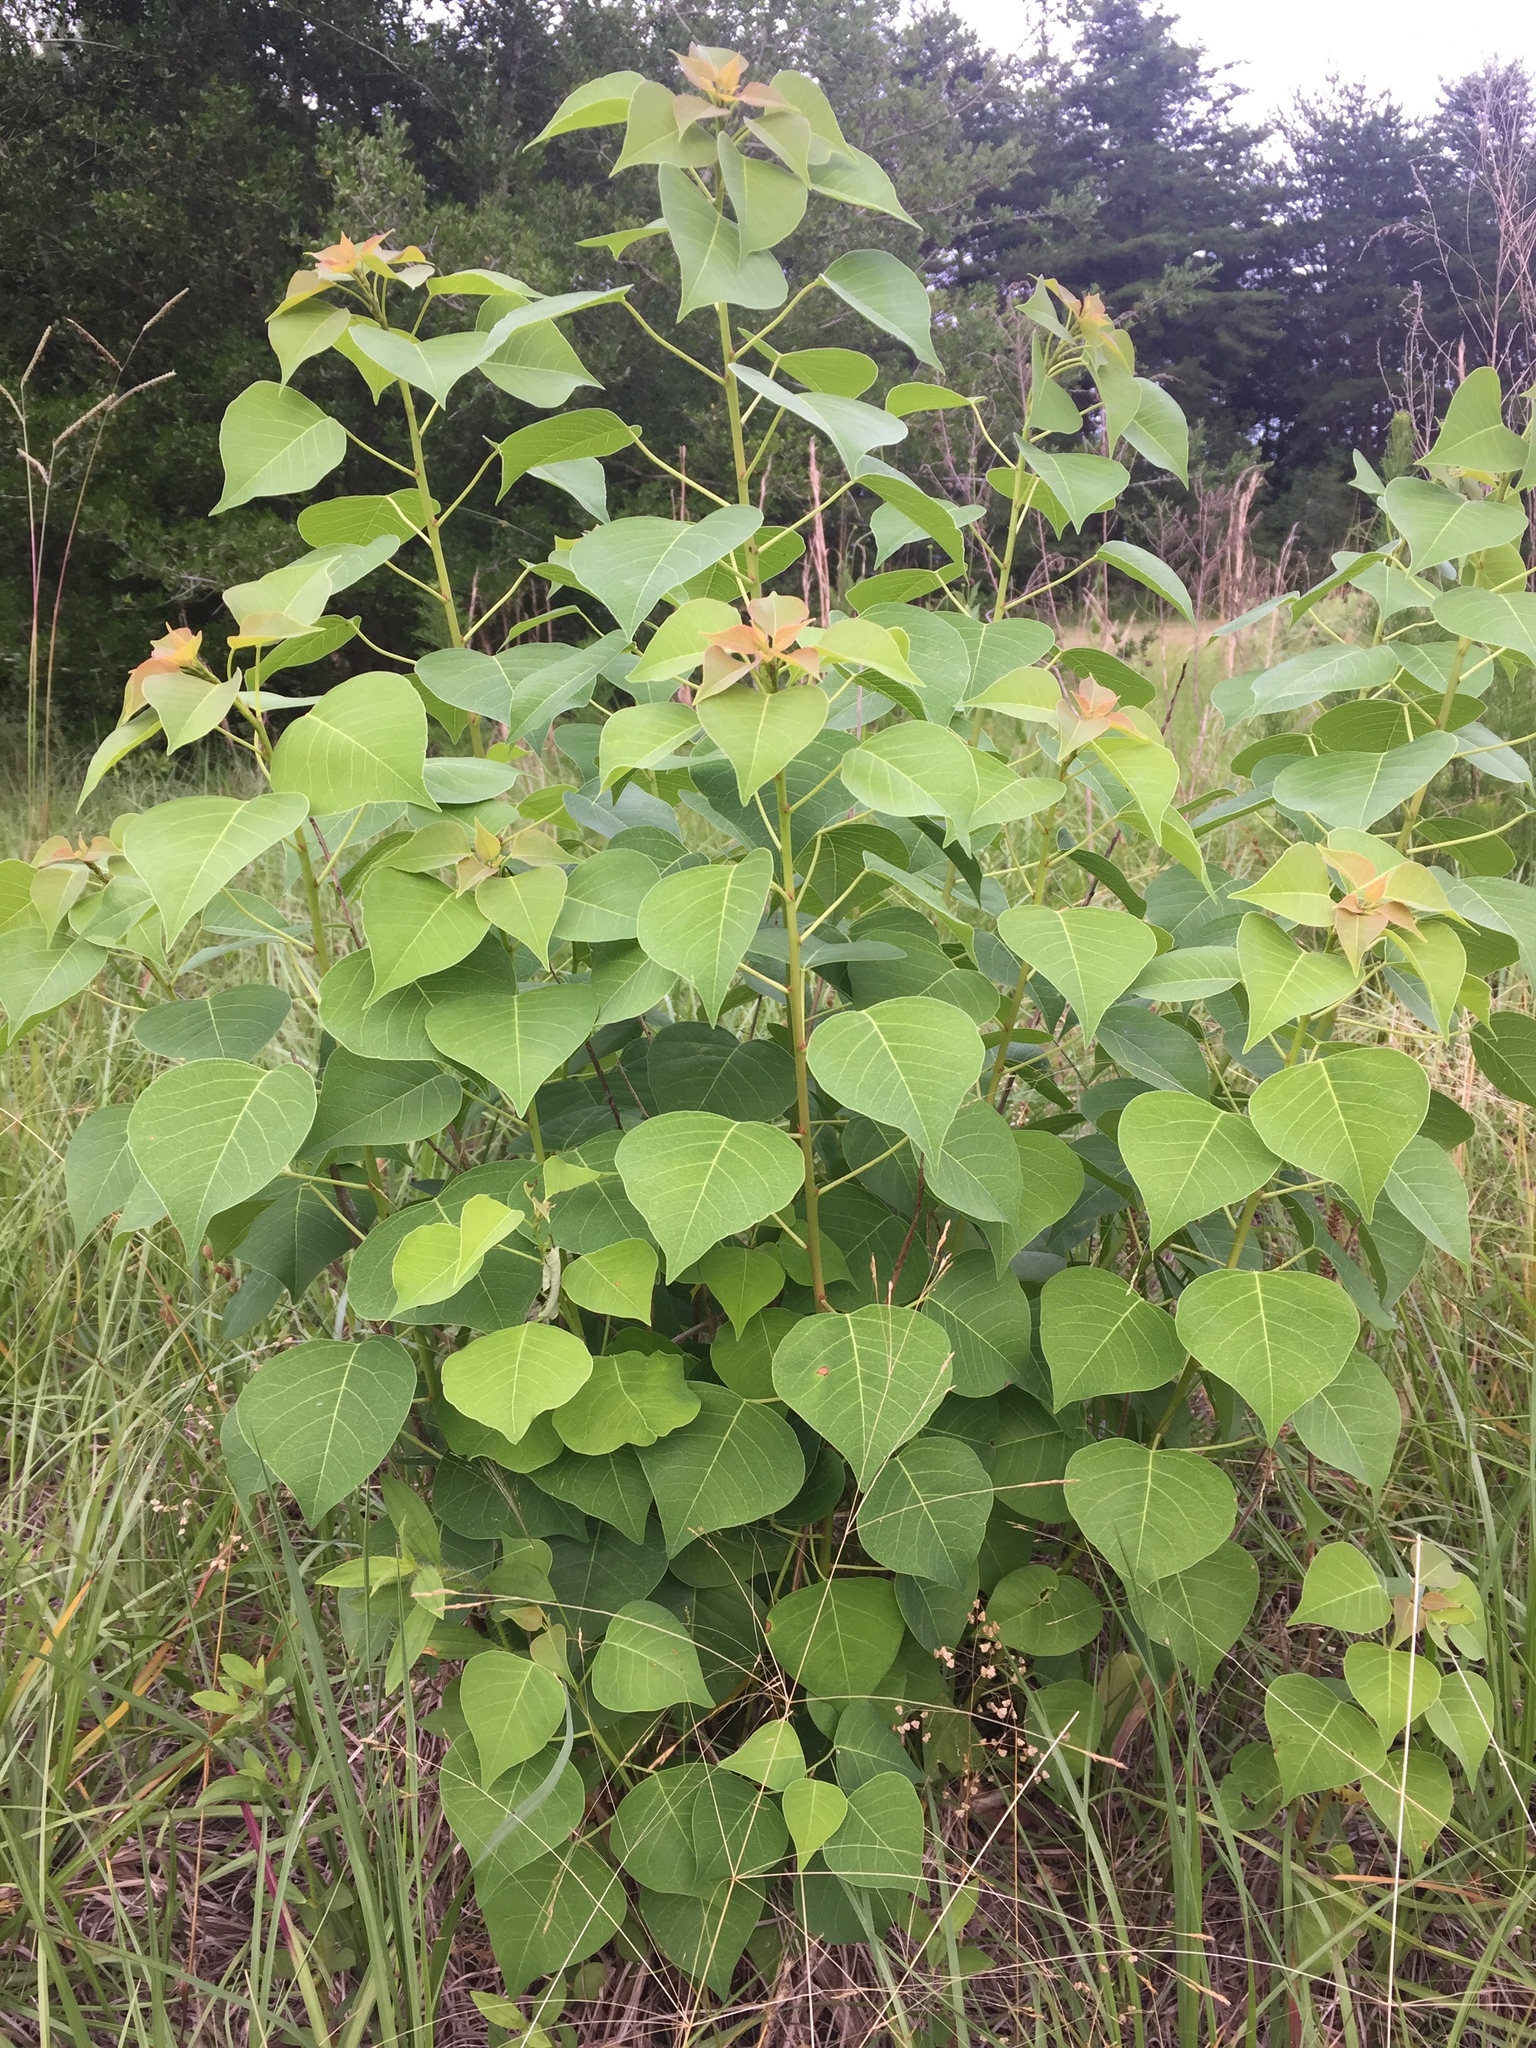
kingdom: Plantae
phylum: Tracheophyta
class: Magnoliopsida
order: Malpighiales
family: Euphorbiaceae
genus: Triadica
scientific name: Triadica sebifera
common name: Chinese tallow
